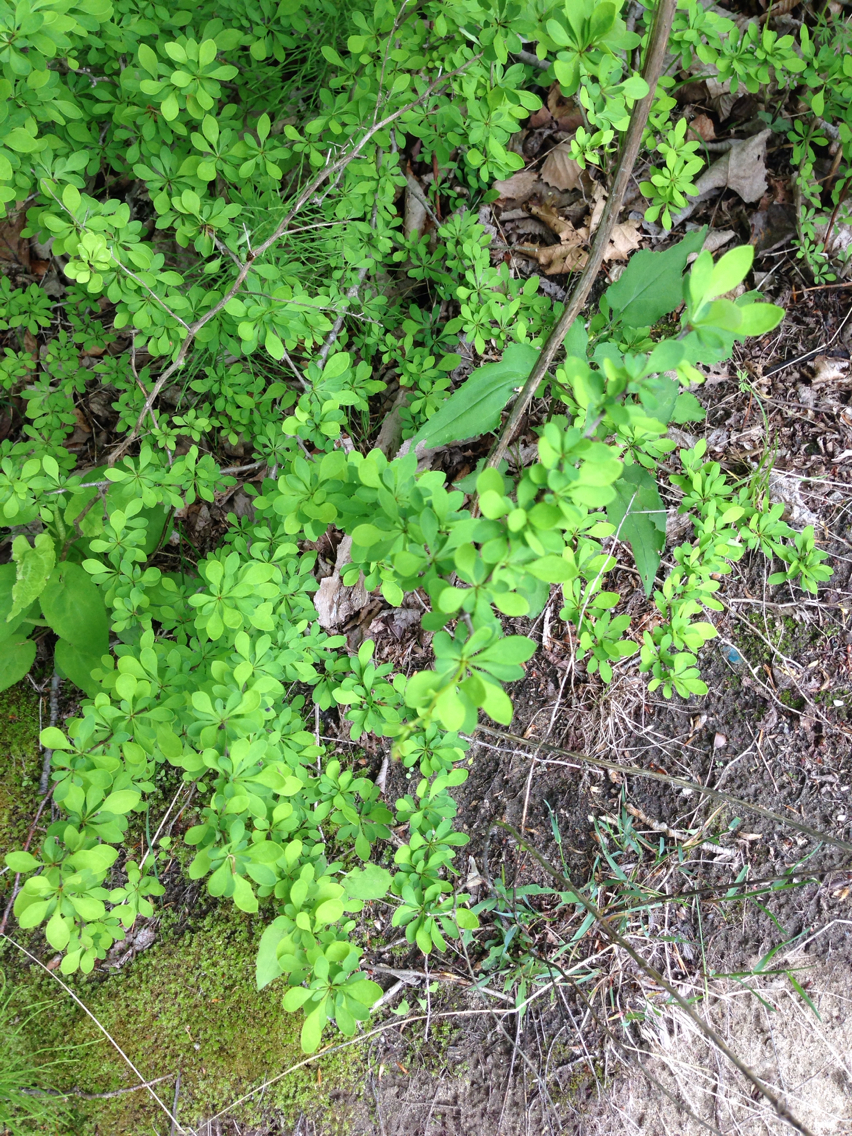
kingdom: Plantae
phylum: Tracheophyta
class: Magnoliopsida
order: Ranunculales
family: Berberidaceae
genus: Berberis
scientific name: Berberis thunbergii
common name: Japanese barberry
